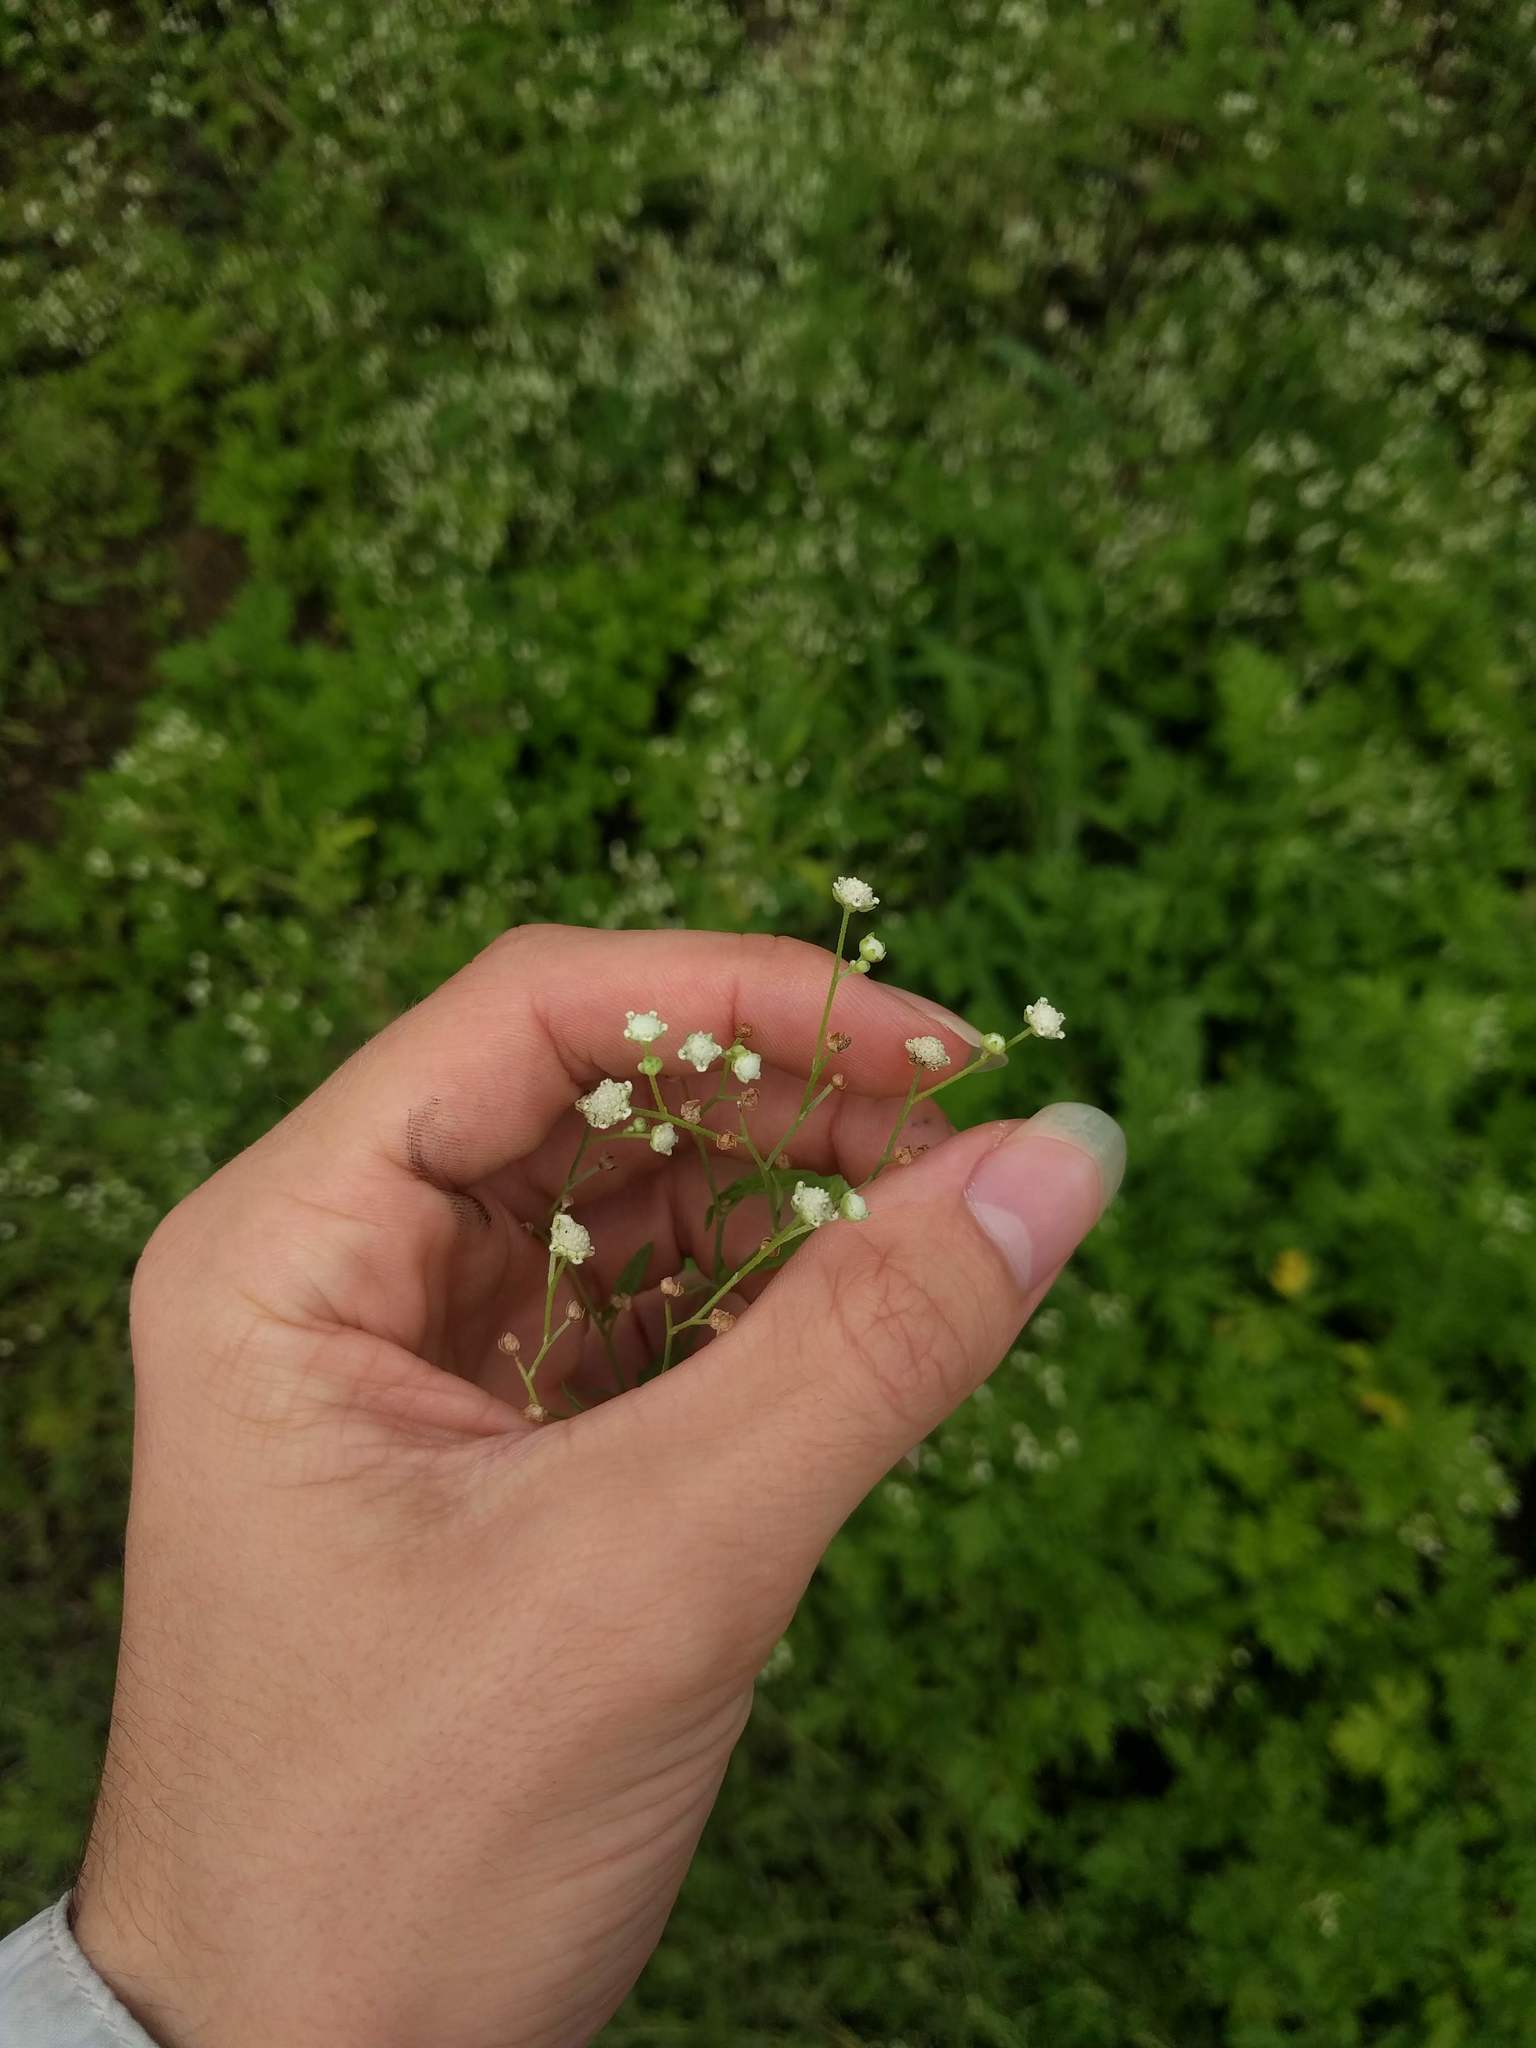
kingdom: Plantae
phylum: Tracheophyta
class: Magnoliopsida
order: Asterales
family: Asteraceae
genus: Parthenium
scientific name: Parthenium hysterophorus
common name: Santa maria feverfew
